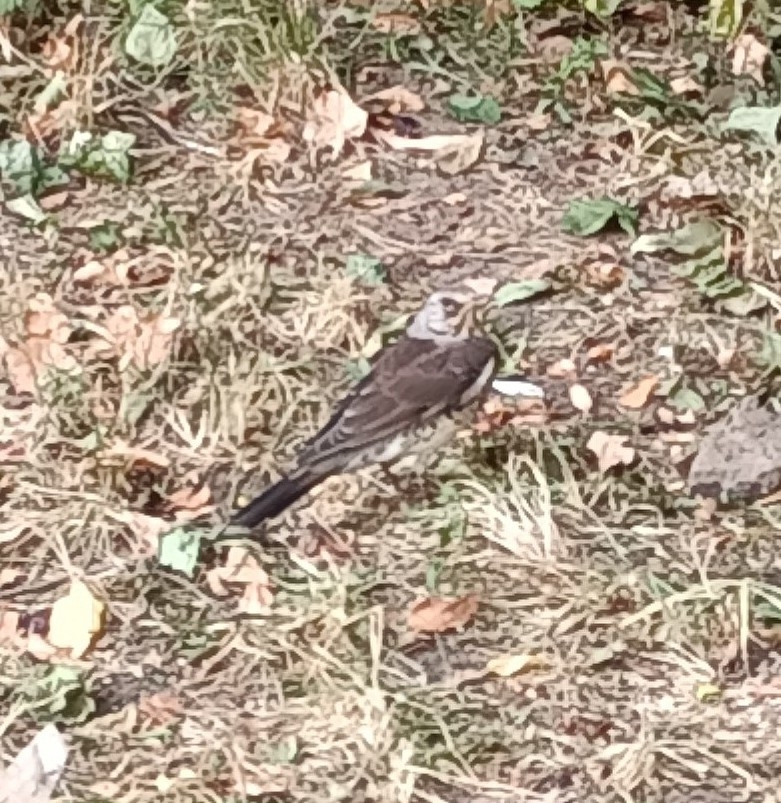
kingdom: Animalia
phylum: Chordata
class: Aves
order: Passeriformes
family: Turdidae
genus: Turdus
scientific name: Turdus pilaris
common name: Fieldfare
